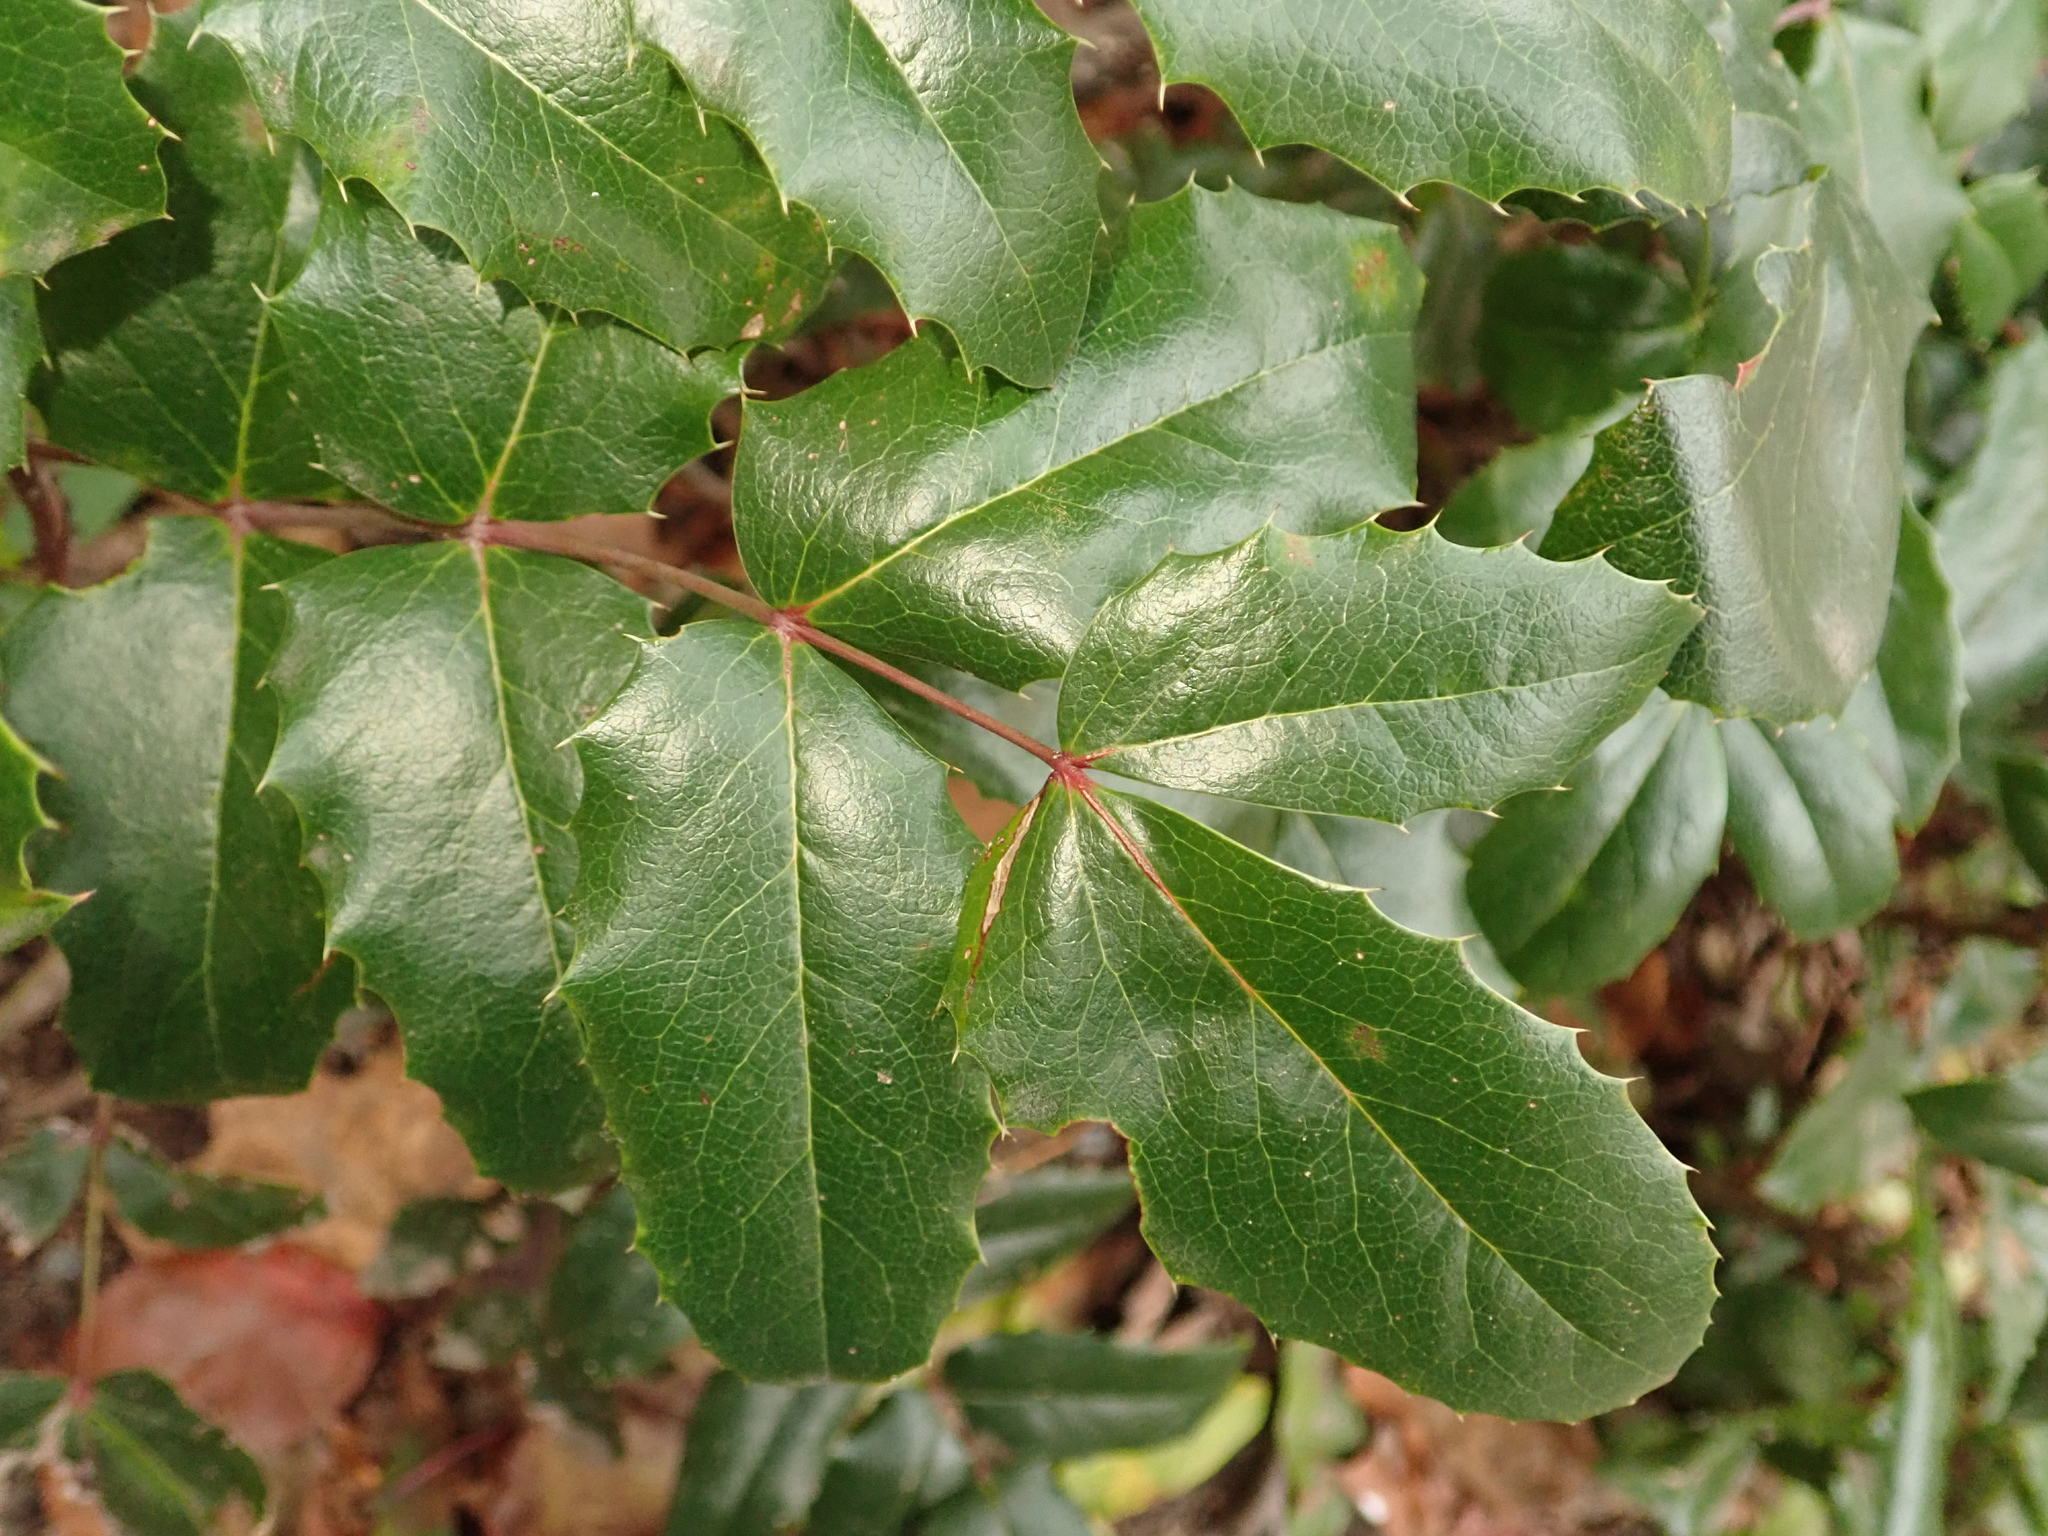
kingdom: Plantae
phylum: Tracheophyta
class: Magnoliopsida
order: Ranunculales
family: Berberidaceae
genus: Mahonia
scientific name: Mahonia aquifolium
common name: Oregon-grape
